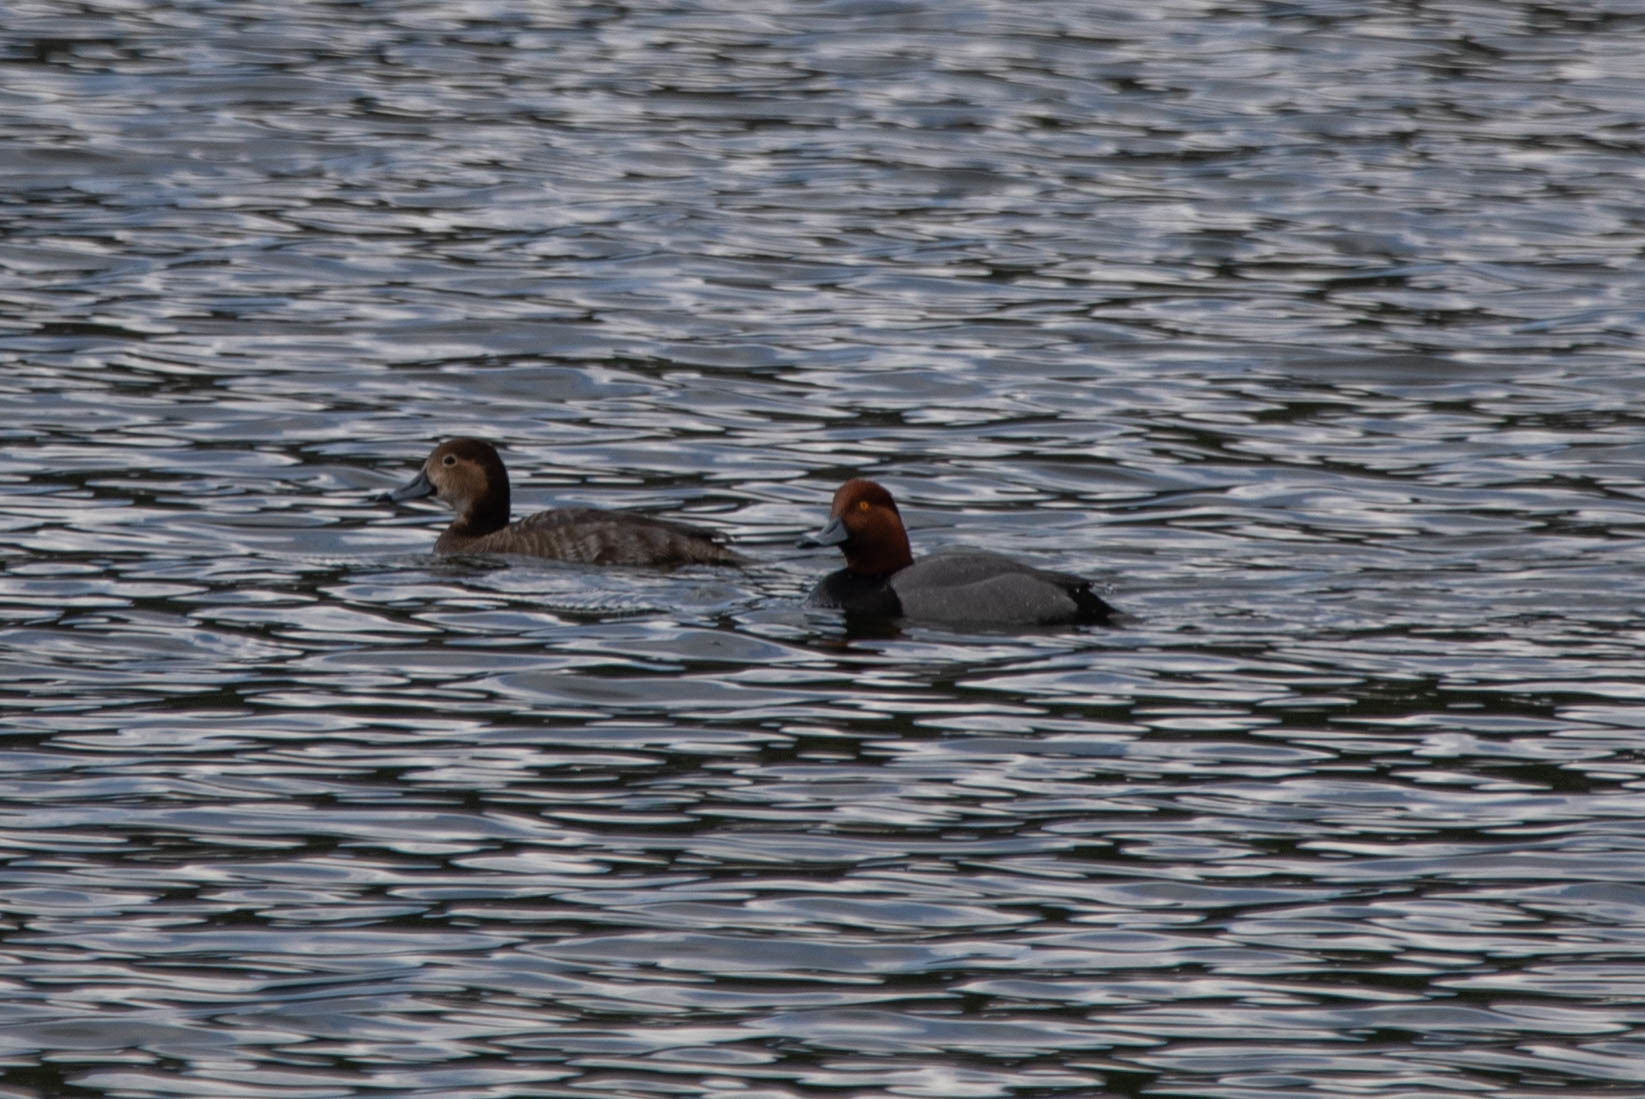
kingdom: Animalia
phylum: Chordata
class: Aves
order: Anseriformes
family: Anatidae
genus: Aythya
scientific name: Aythya americana
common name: Redhead
